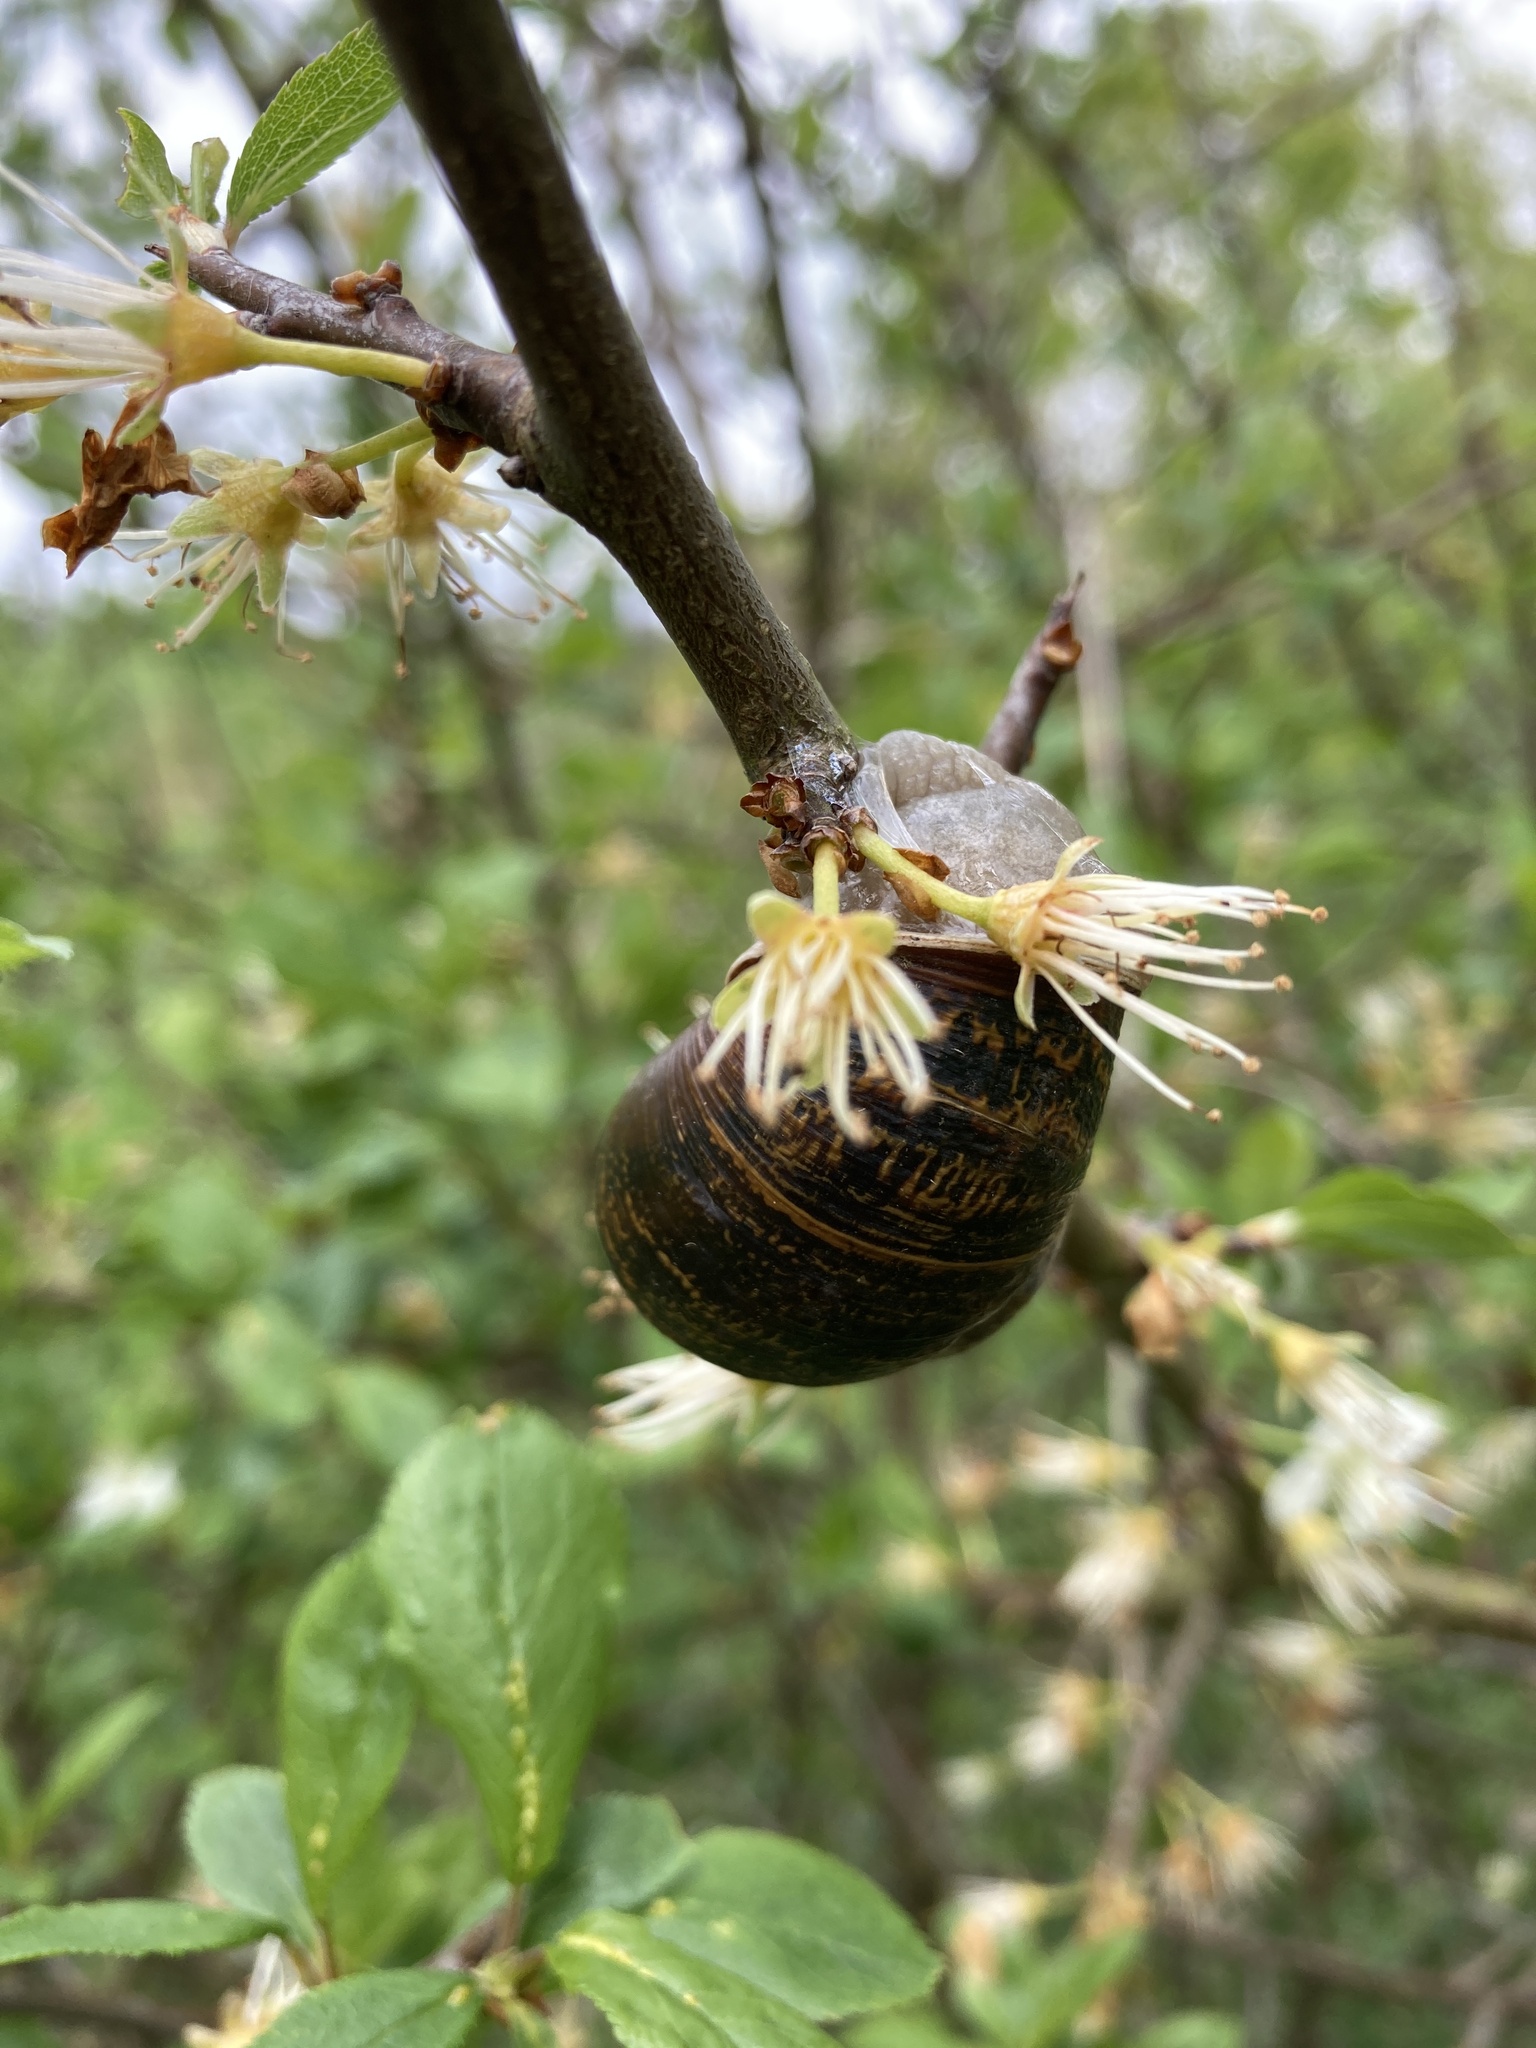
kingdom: Animalia
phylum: Mollusca
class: Gastropoda
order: Stylommatophora
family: Helicidae
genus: Cornu
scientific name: Cornu aspersum
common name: Brown garden snail
